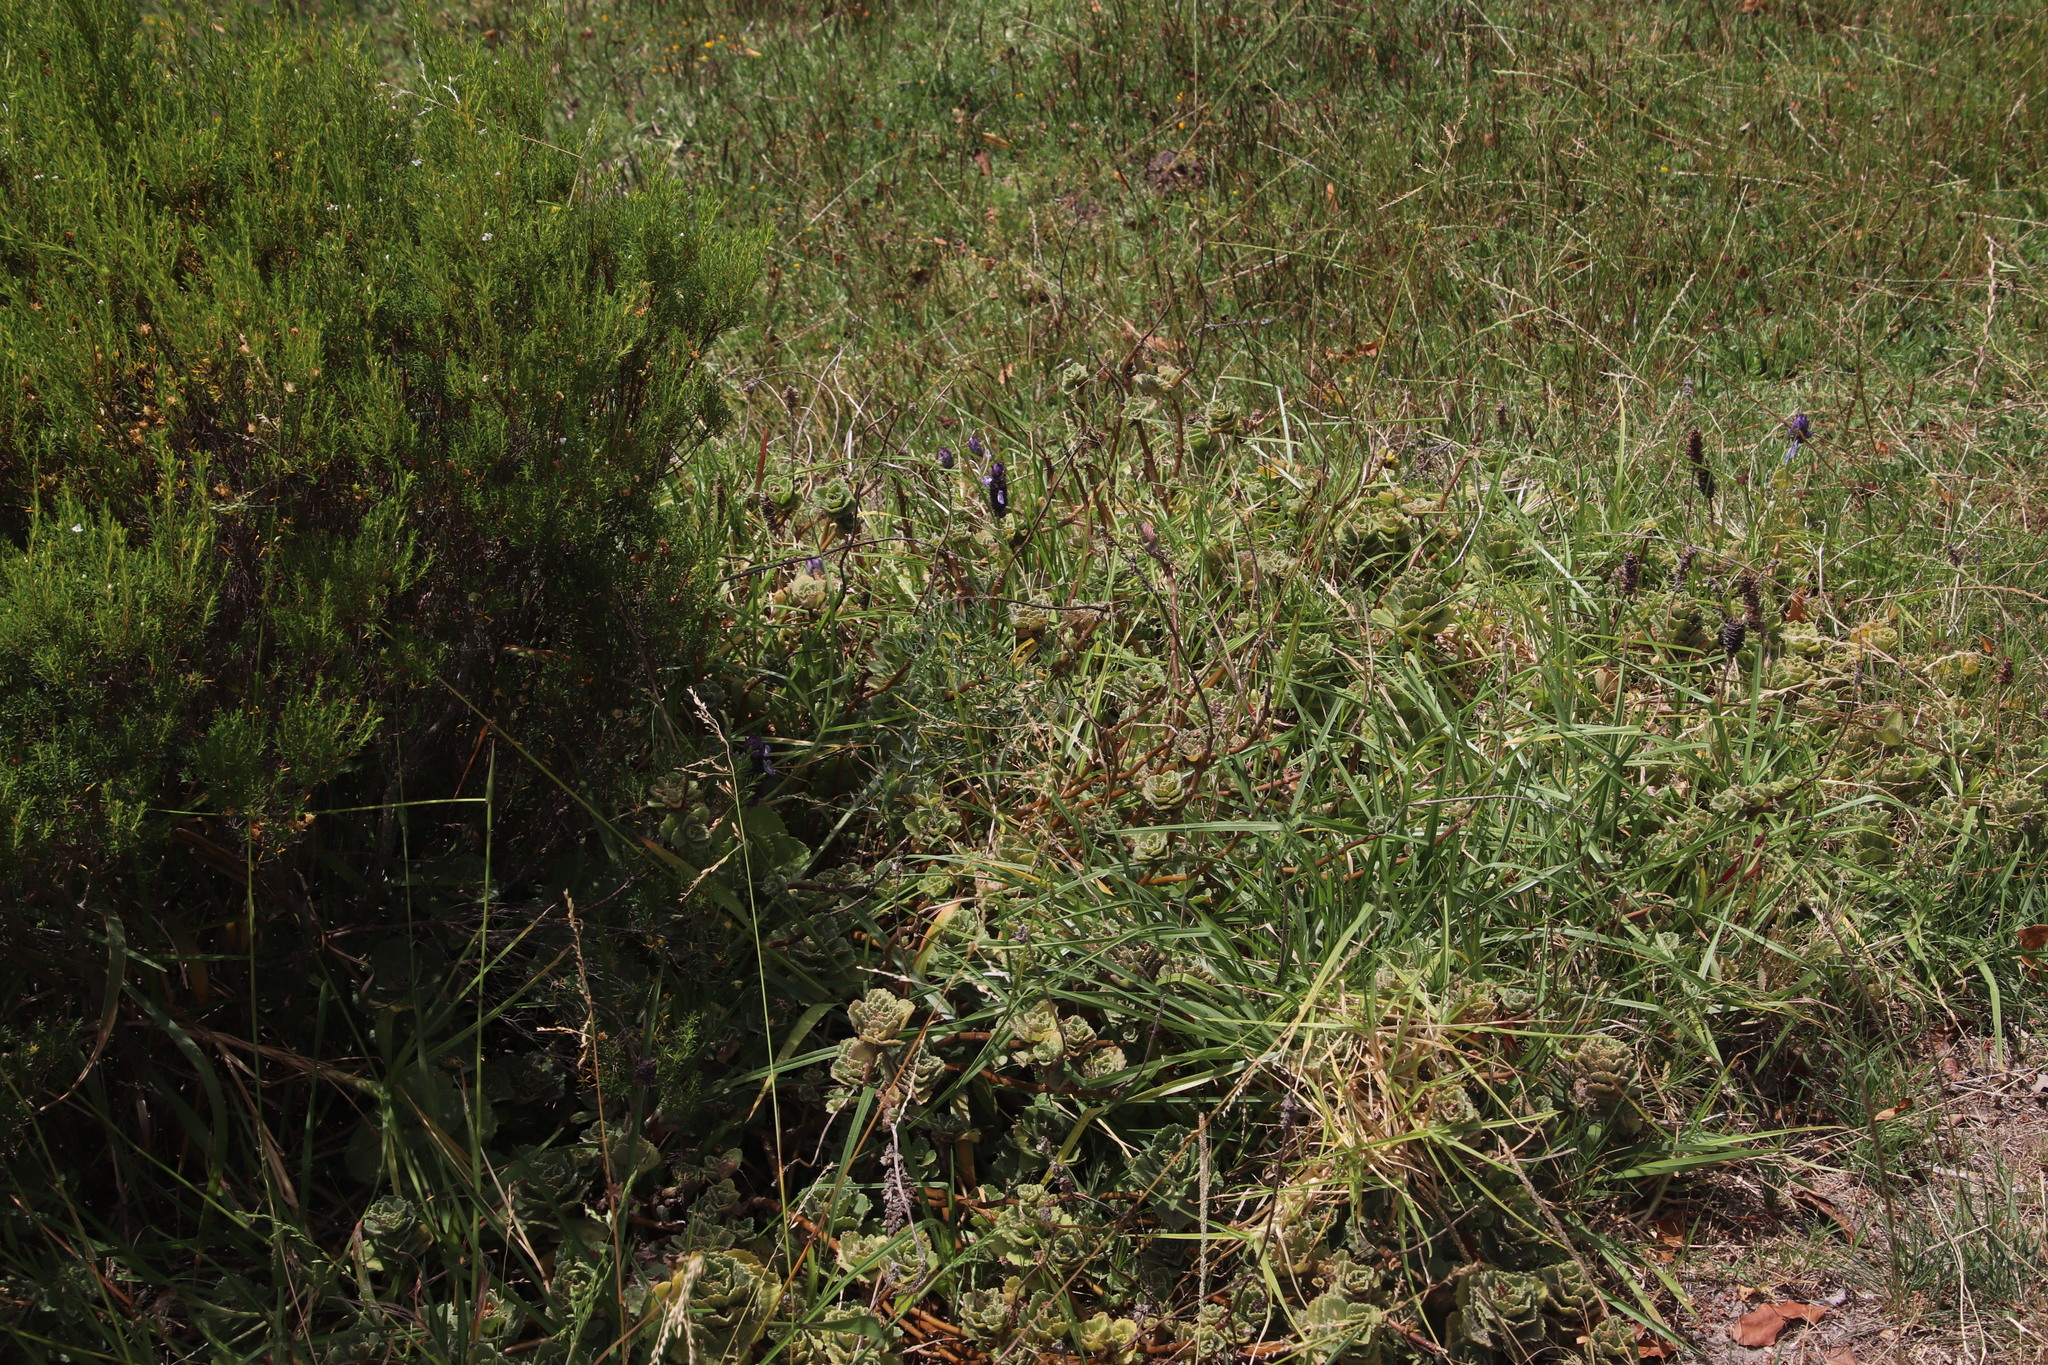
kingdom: Plantae
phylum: Tracheophyta
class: Magnoliopsida
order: Lamiales
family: Lamiaceae
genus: Coleus
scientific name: Coleus neochilus
